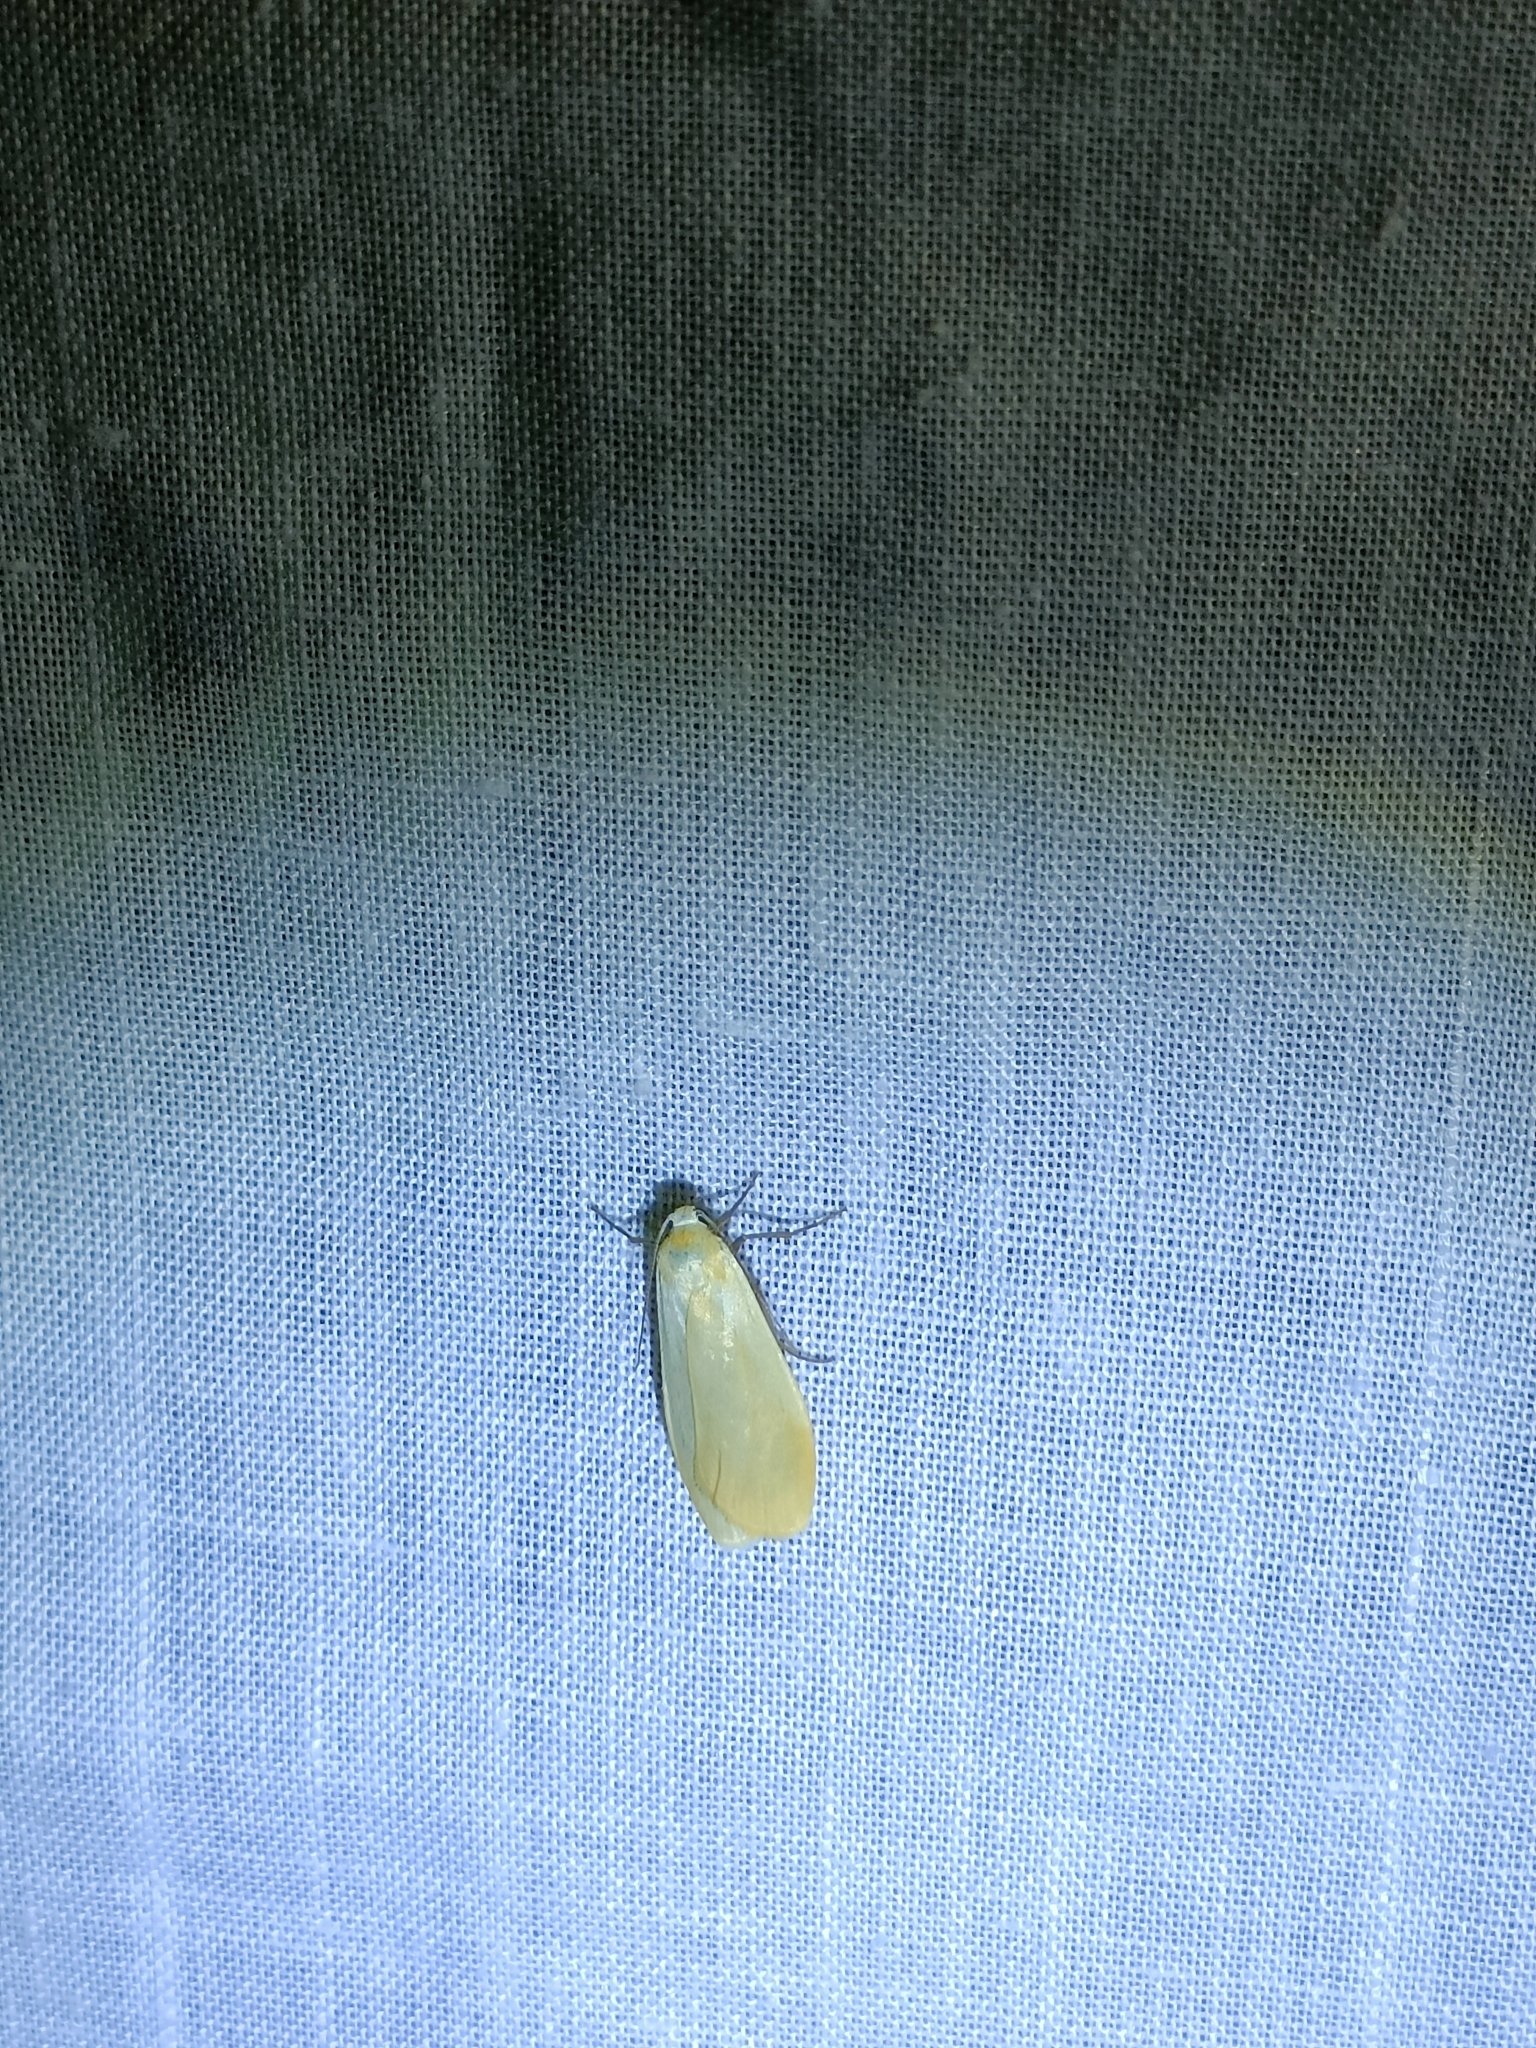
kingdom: Animalia
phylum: Arthropoda
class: Insecta
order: Lepidoptera
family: Erebidae
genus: Wittia
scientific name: Wittia sororcula
